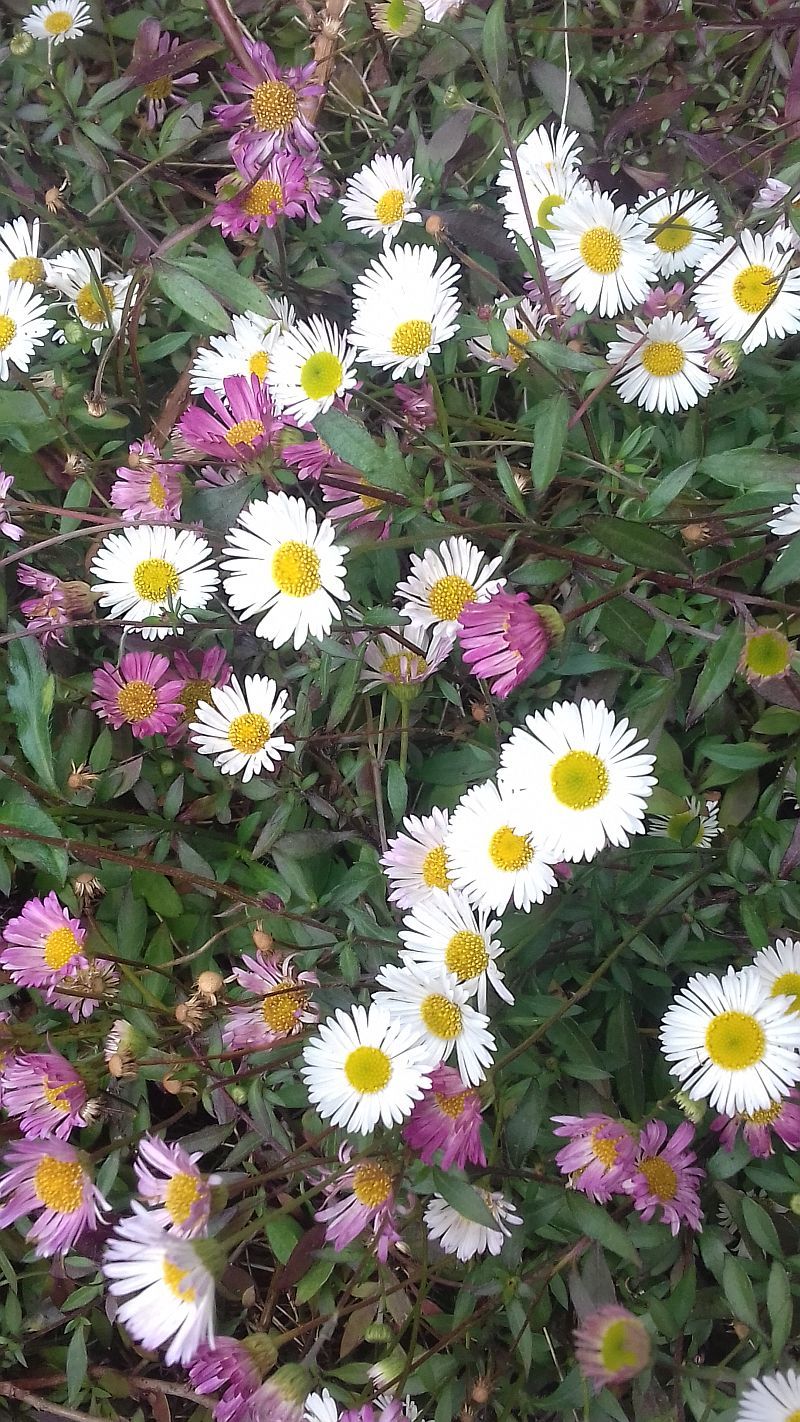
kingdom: Plantae
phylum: Tracheophyta
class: Magnoliopsida
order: Asterales
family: Asteraceae
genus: Erigeron
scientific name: Erigeron karvinskianus
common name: Mexican fleabane
